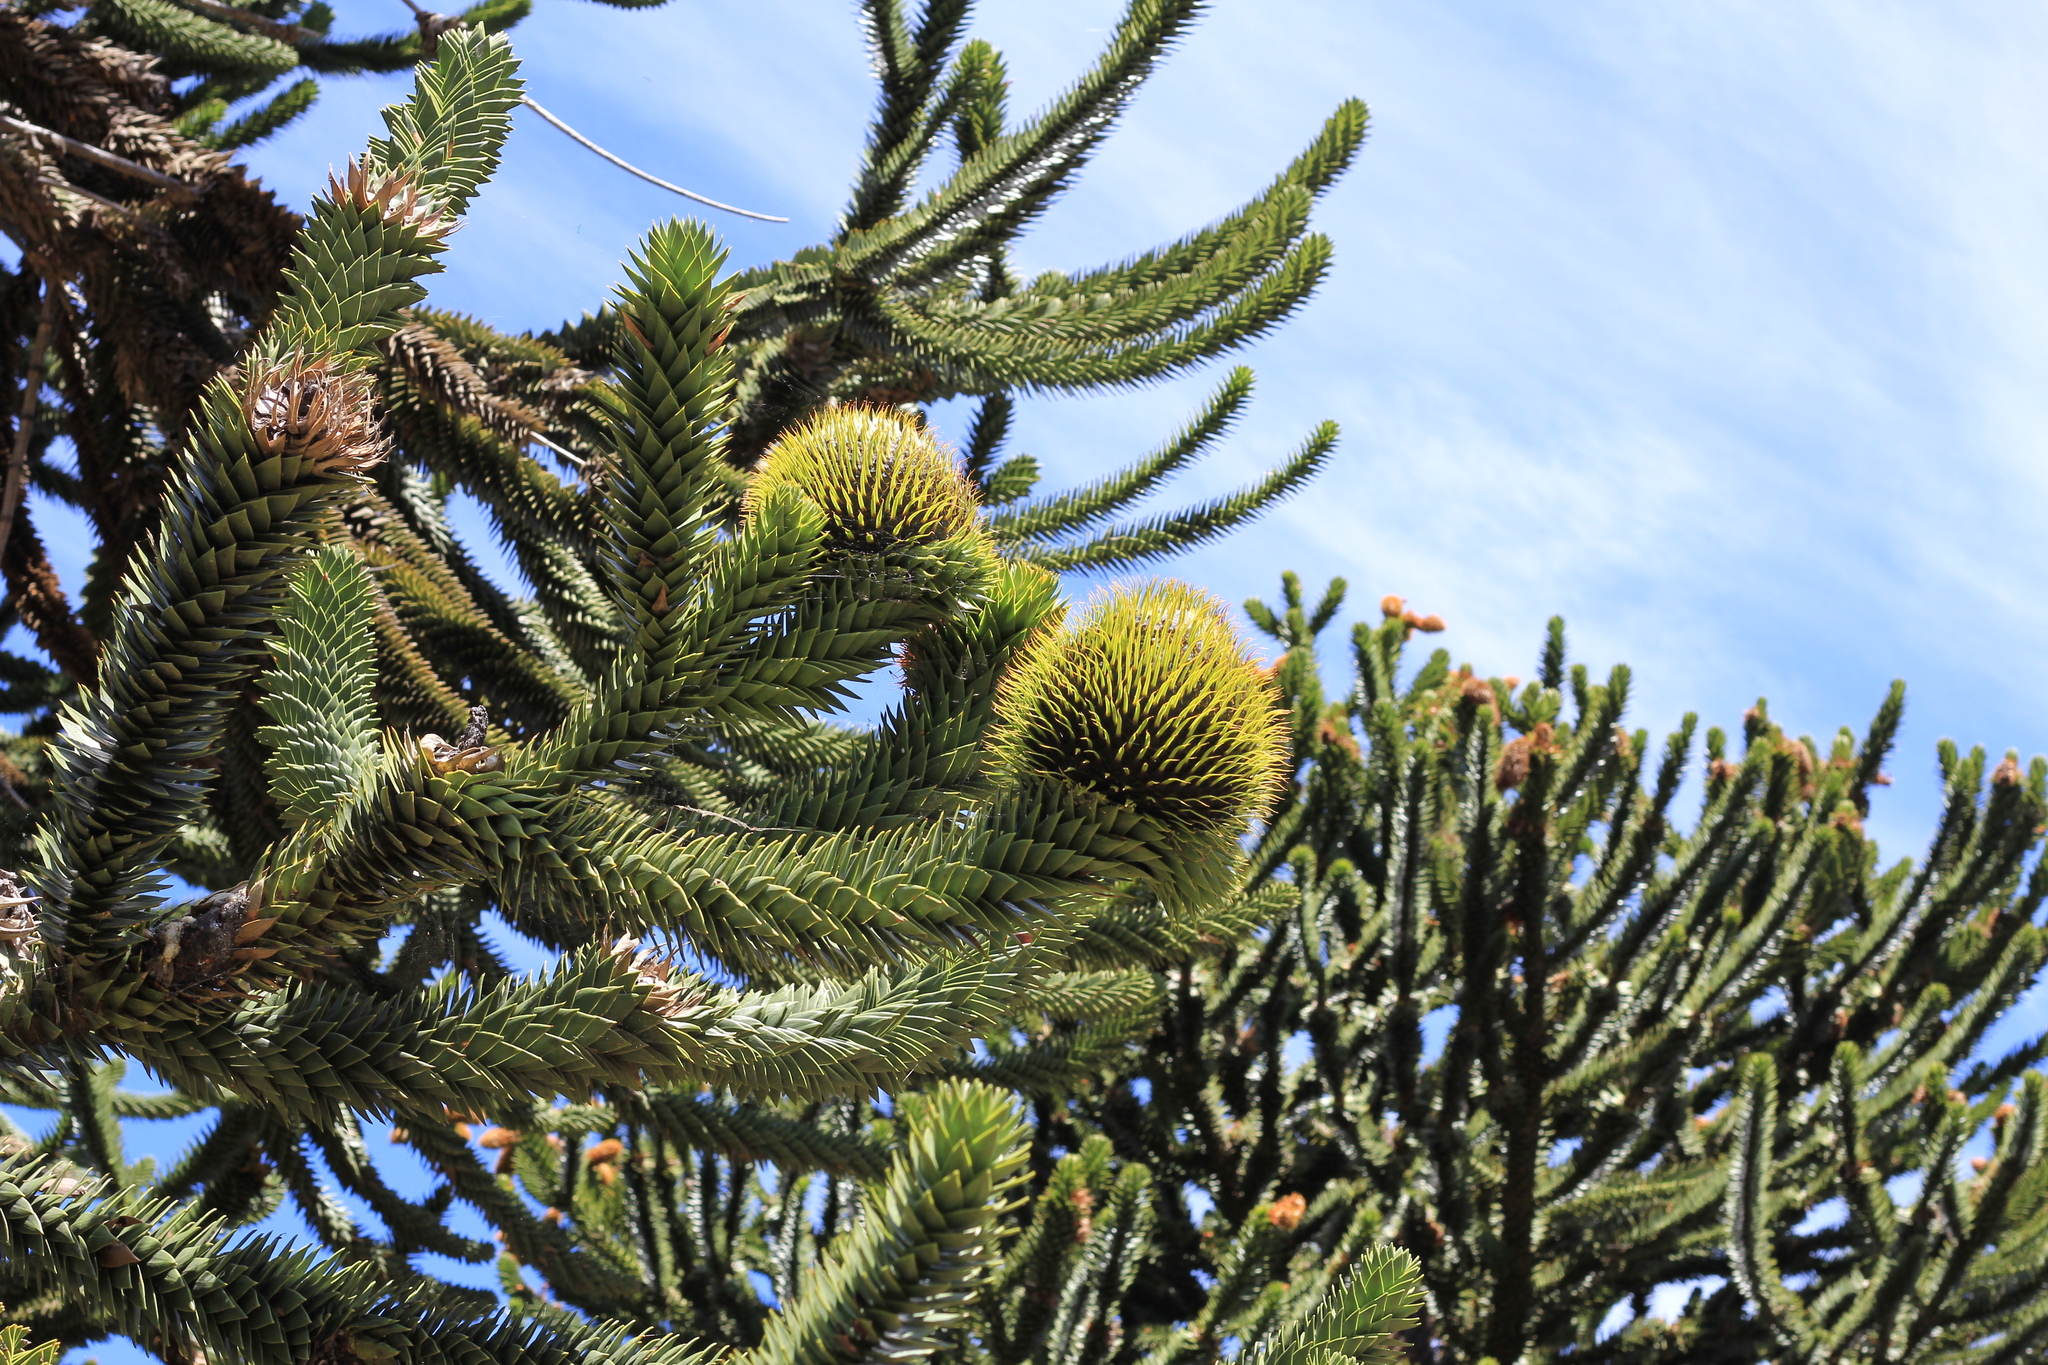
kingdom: Plantae
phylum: Tracheophyta
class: Pinopsida
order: Pinales
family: Araucariaceae
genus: Araucaria
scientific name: Araucaria araucana
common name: Monkey-puzzle
